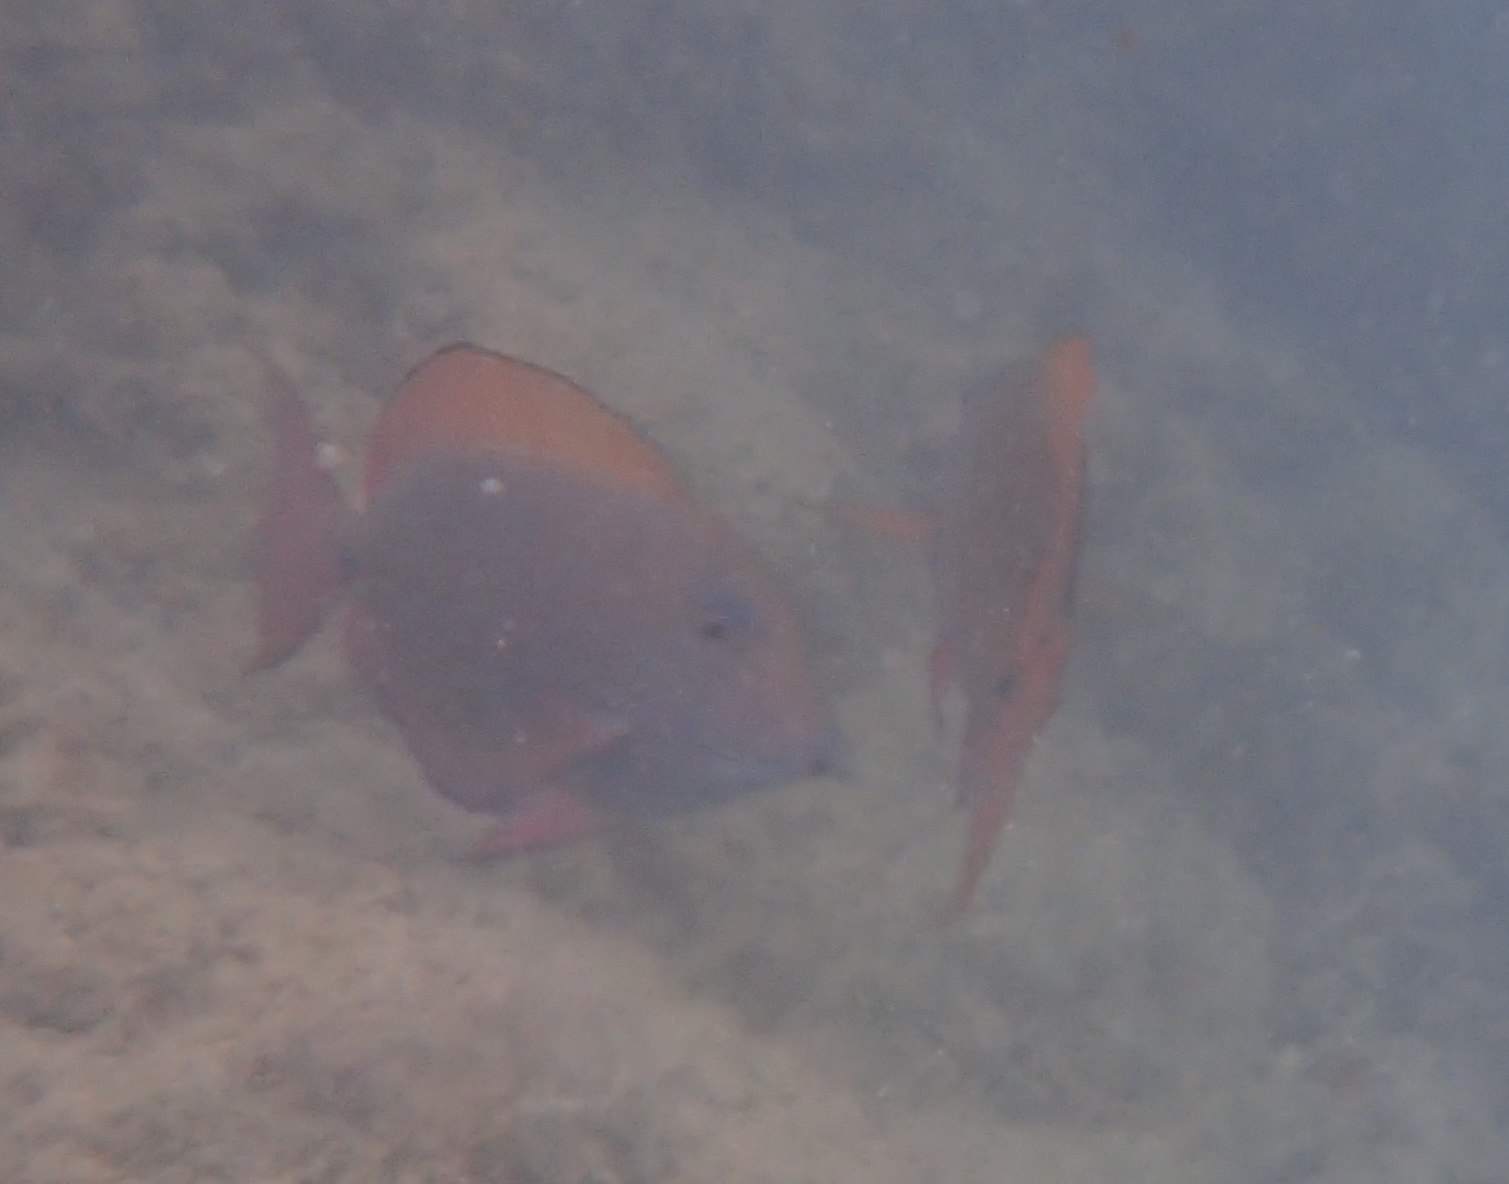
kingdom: Animalia
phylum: Chordata
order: Perciformes
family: Acanthuridae
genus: Acanthurus
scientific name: Acanthurus nigrofuscus
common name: Blackspot surgeonfish
